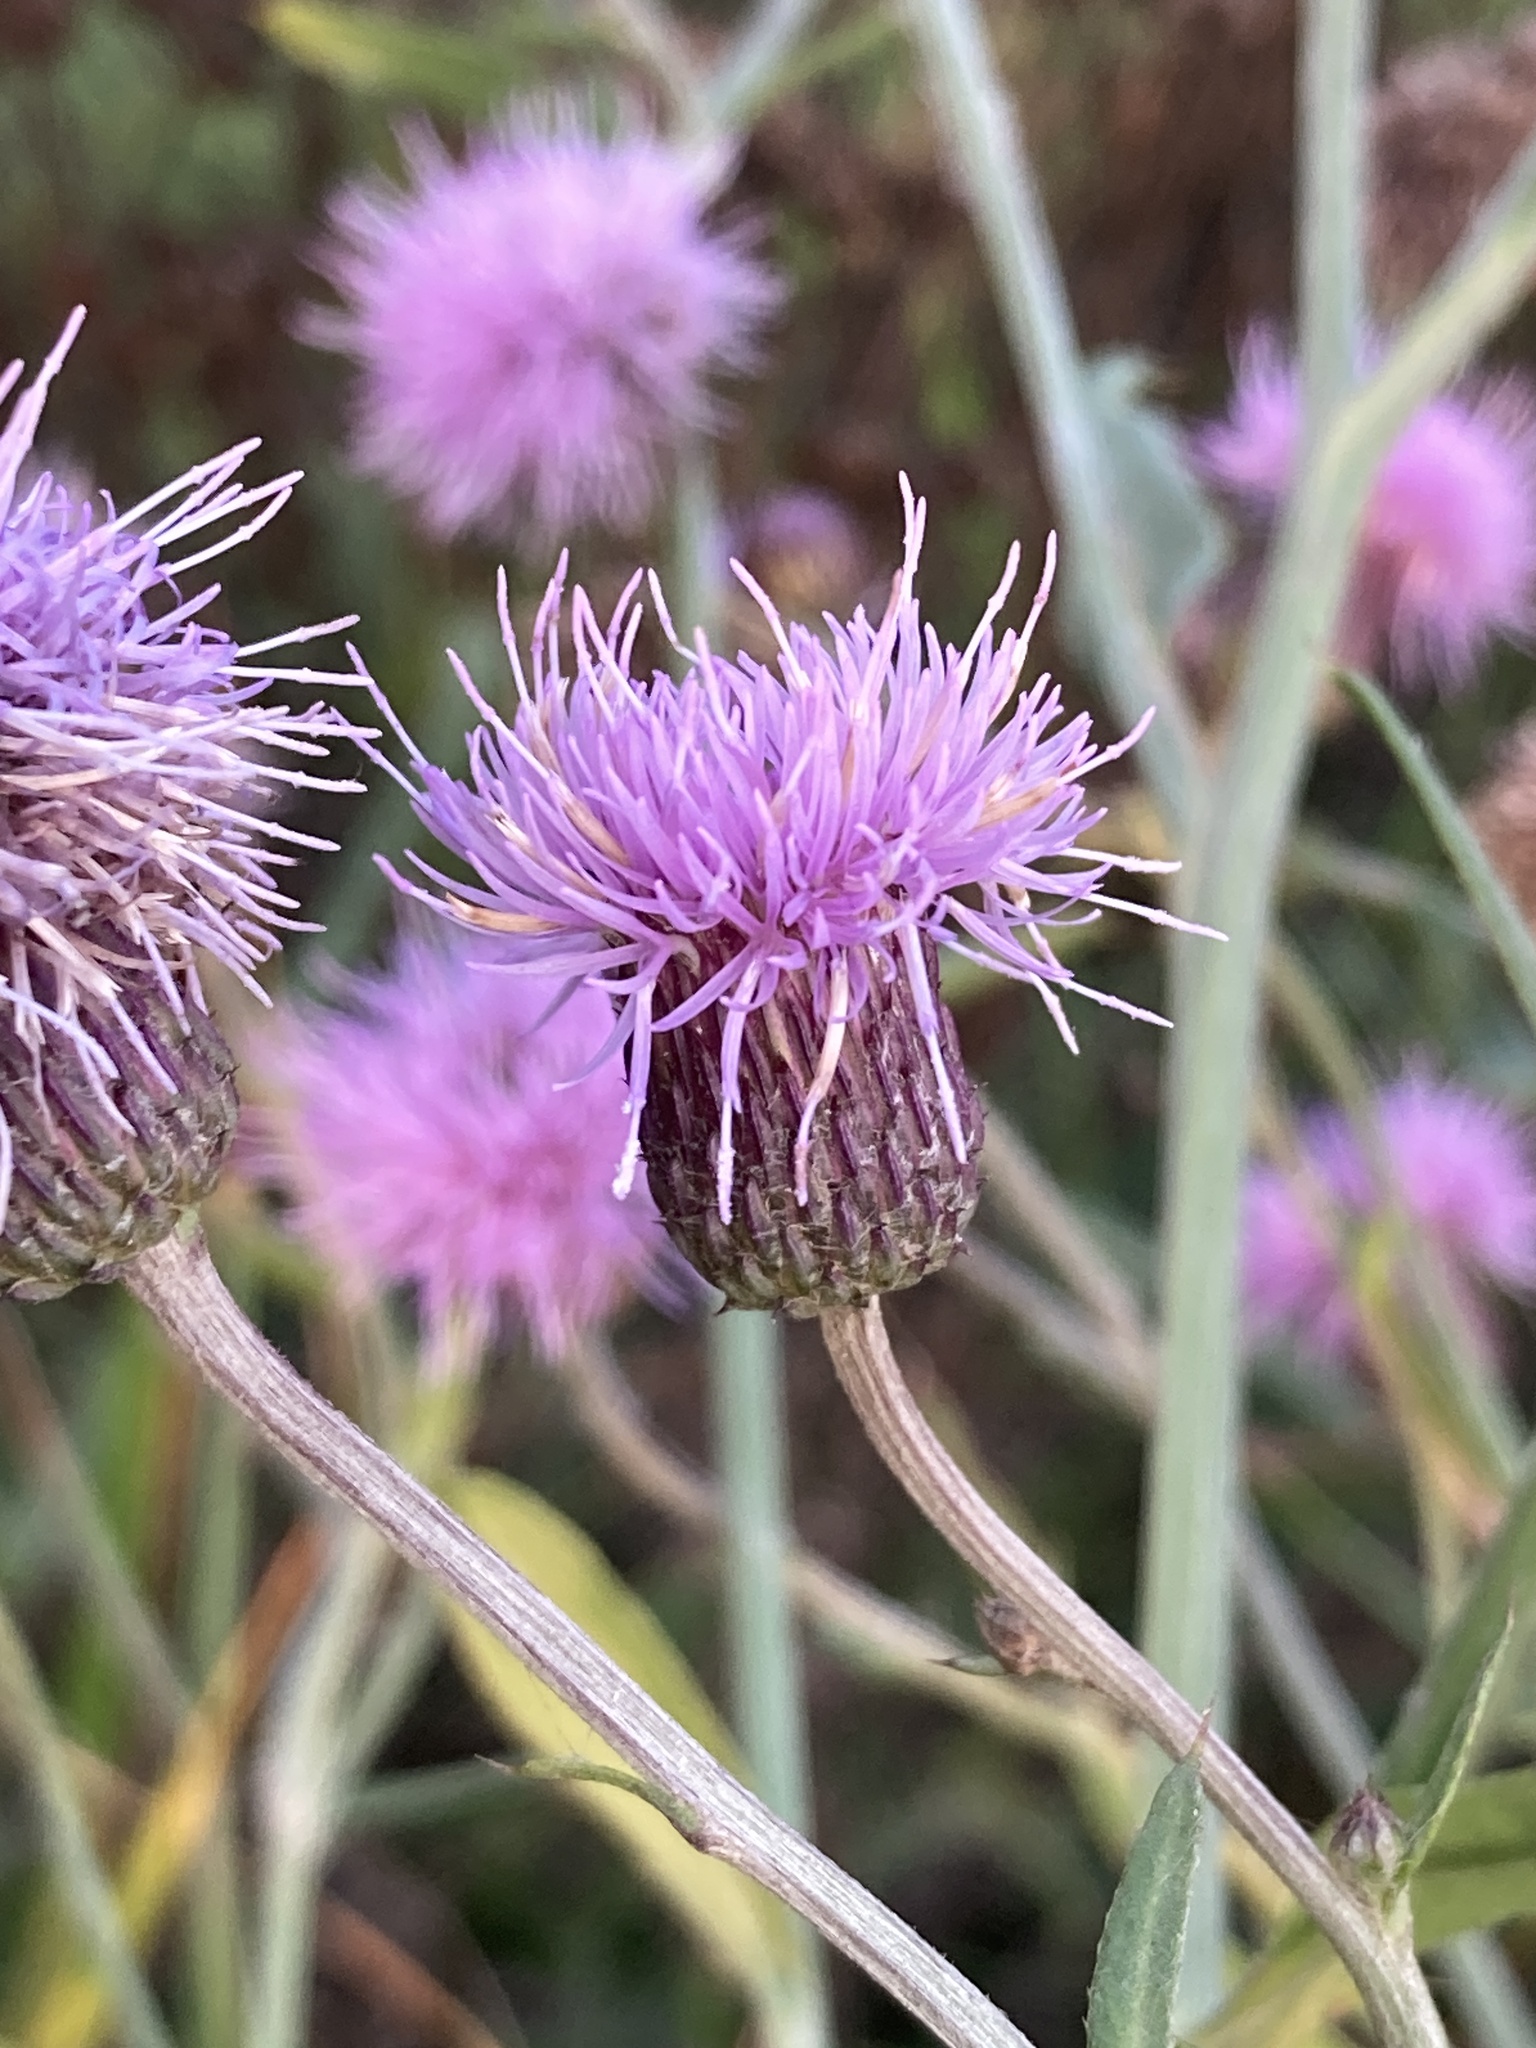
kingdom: Plantae
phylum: Tracheophyta
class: Magnoliopsida
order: Asterales
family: Asteraceae
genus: Cirsium
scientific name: Cirsium arvense
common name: Creeping thistle
